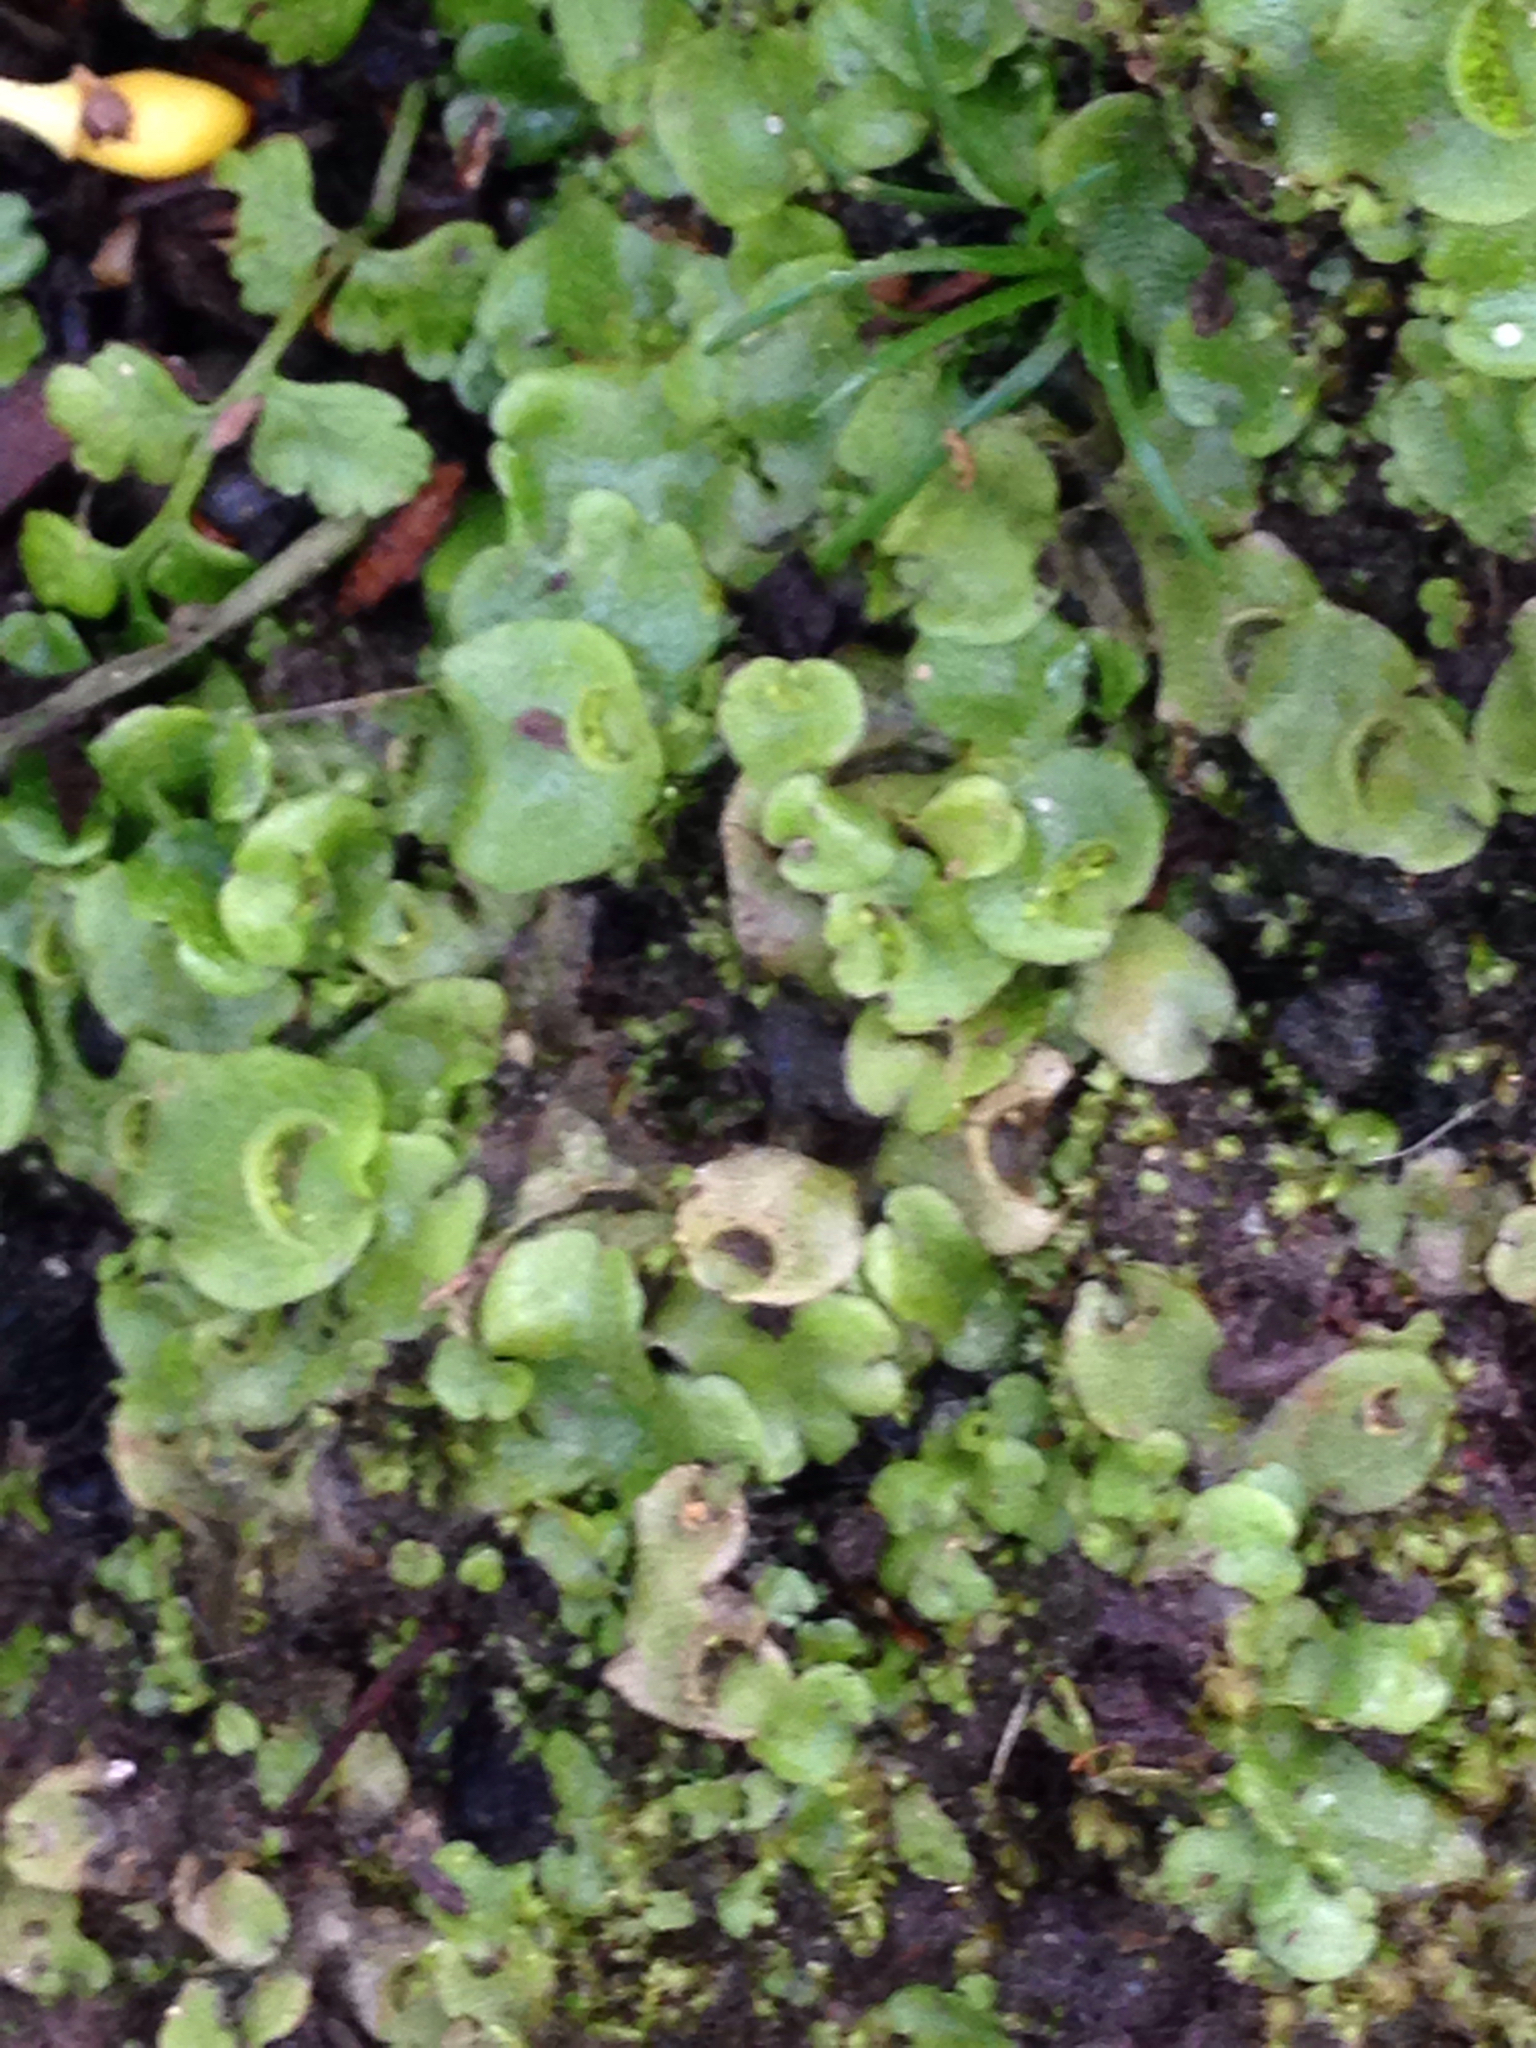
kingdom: Plantae
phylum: Marchantiophyta
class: Marchantiopsida
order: Lunulariales
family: Lunulariaceae
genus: Lunularia
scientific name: Lunularia cruciata
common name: Crescent-cup liverwort
